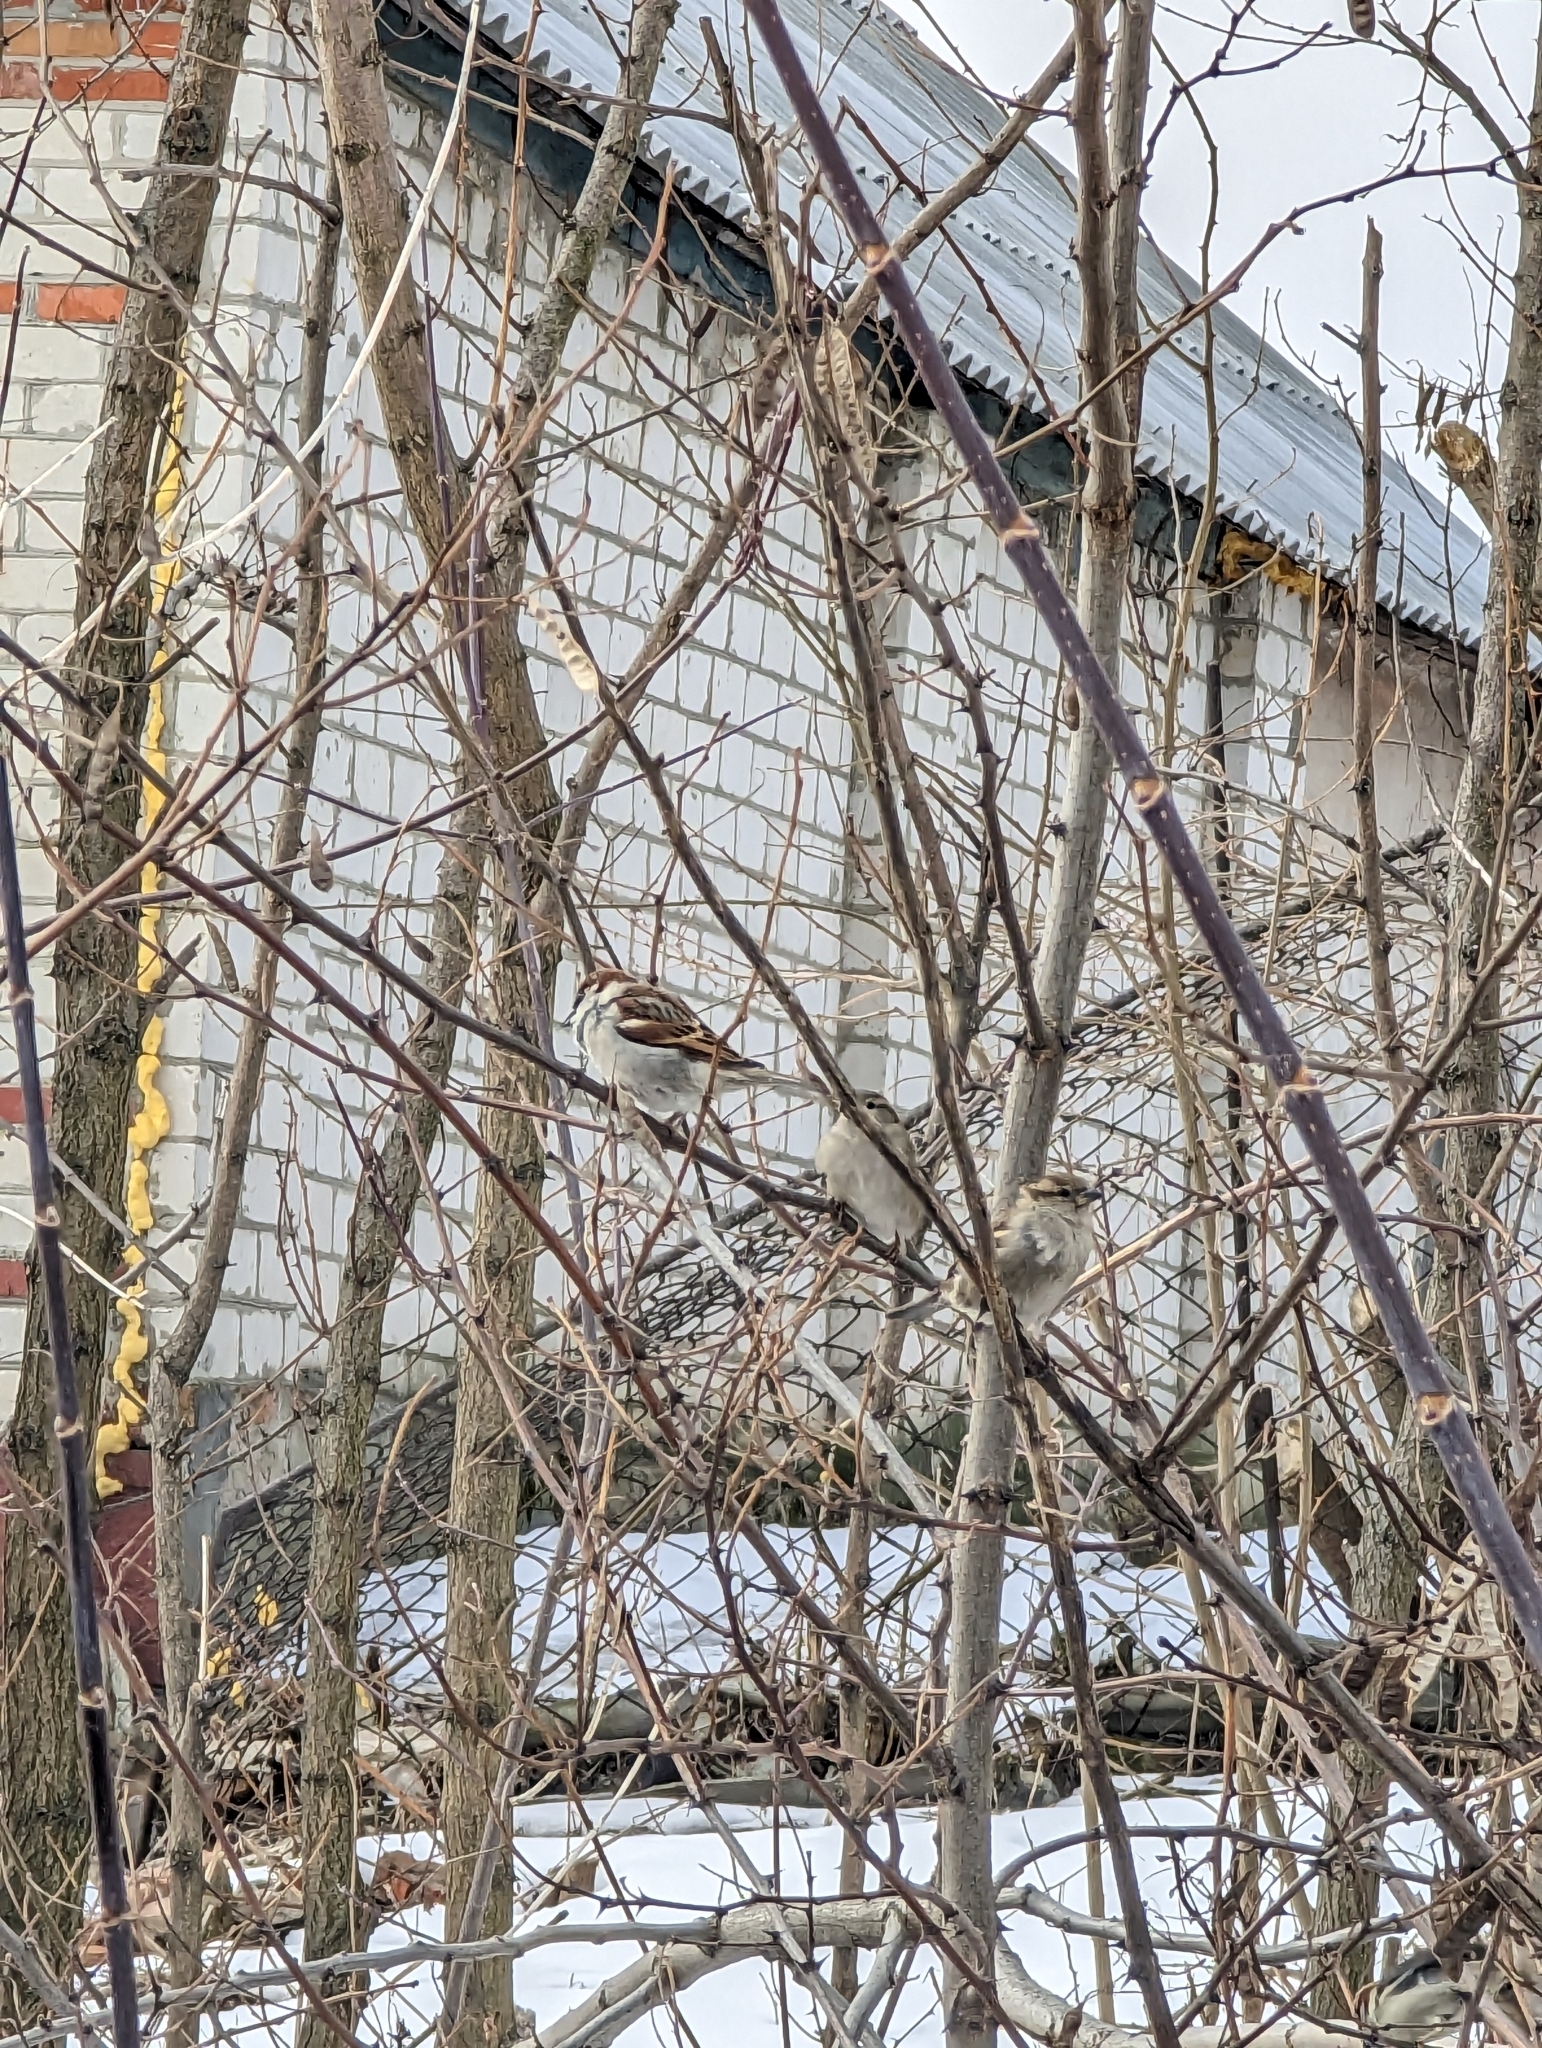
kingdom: Animalia
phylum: Chordata
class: Aves
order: Passeriformes
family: Passeridae
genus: Passer
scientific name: Passer domesticus
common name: House sparrow
